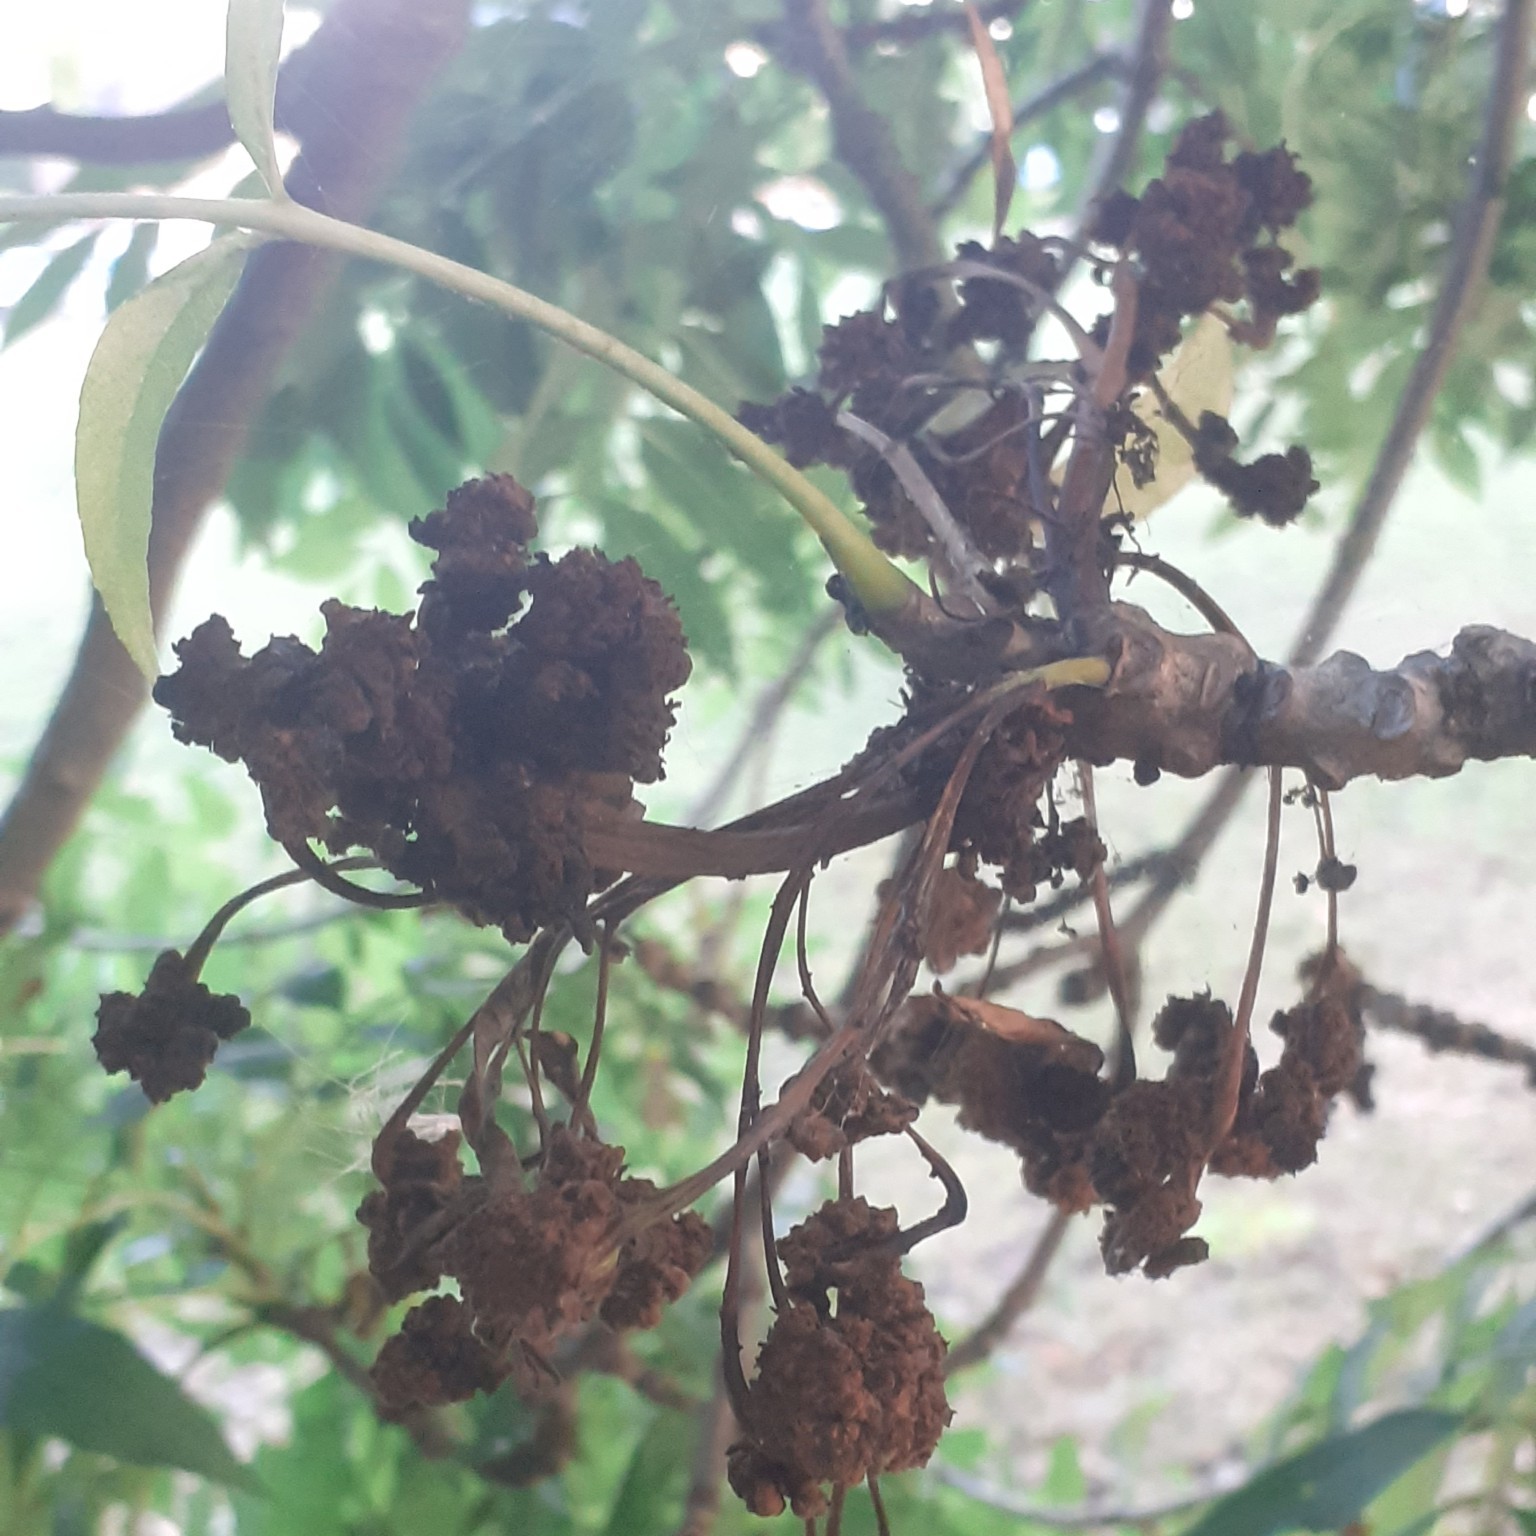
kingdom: Animalia
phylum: Arthropoda
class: Arachnida
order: Trombidiformes
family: Eriophyidae
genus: Aceria
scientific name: Aceria fraxinivora
